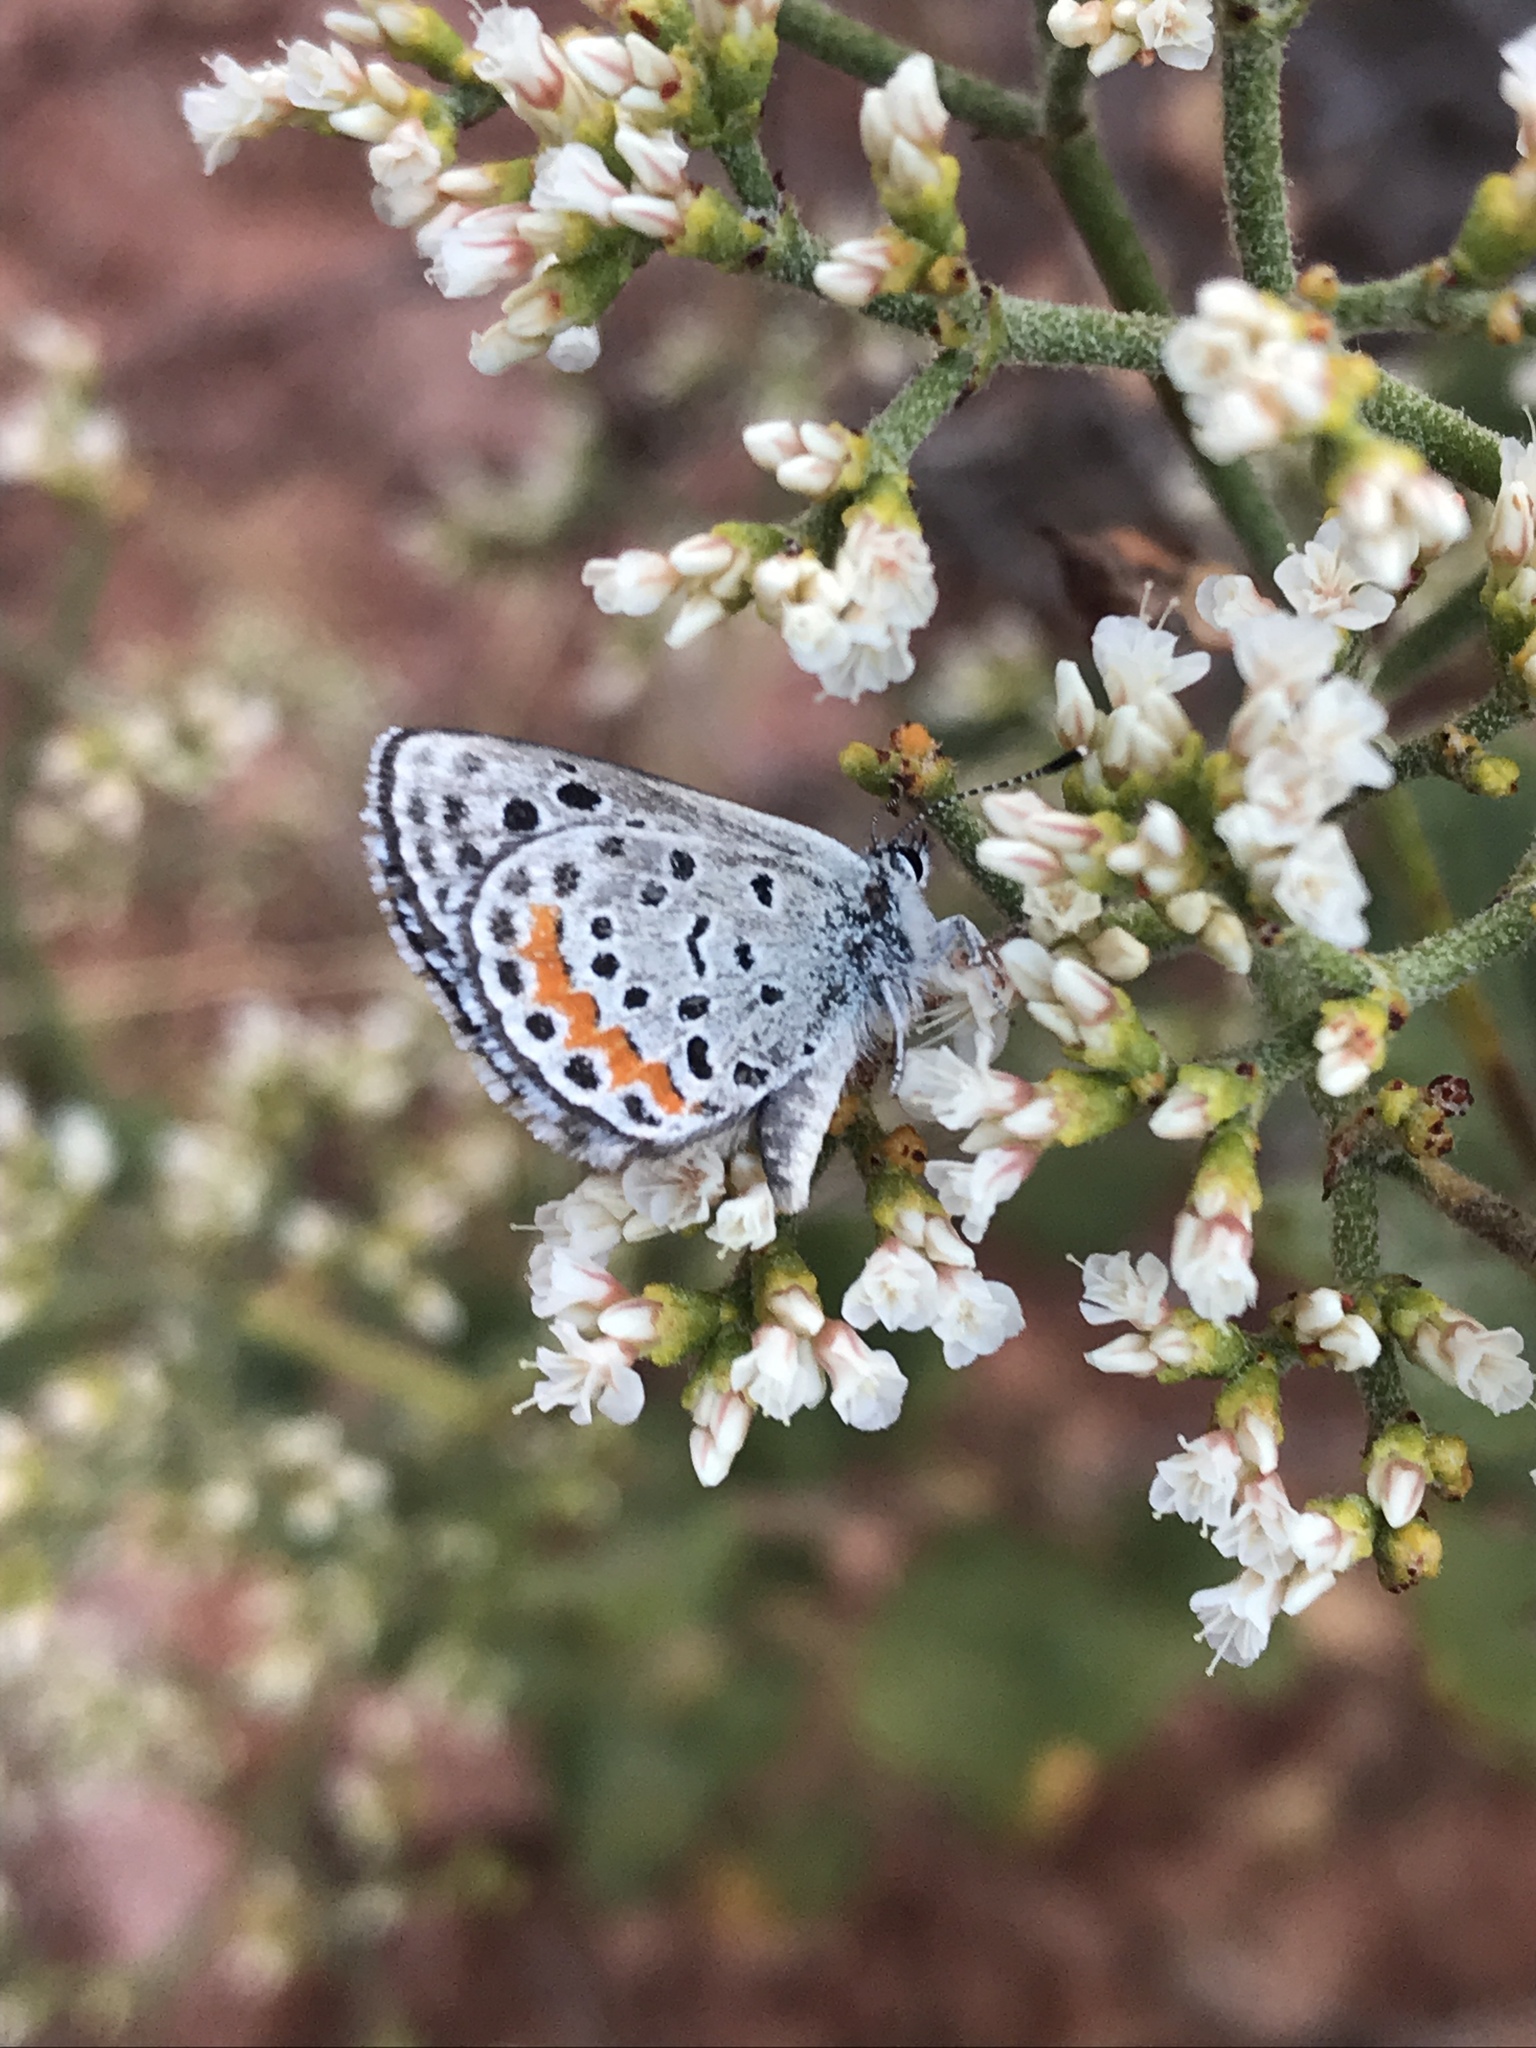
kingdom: Animalia
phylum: Arthropoda
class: Insecta
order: Lepidoptera
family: Lycaenidae
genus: Euphilotes
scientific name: Euphilotes ellisii
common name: Ellis's blue
